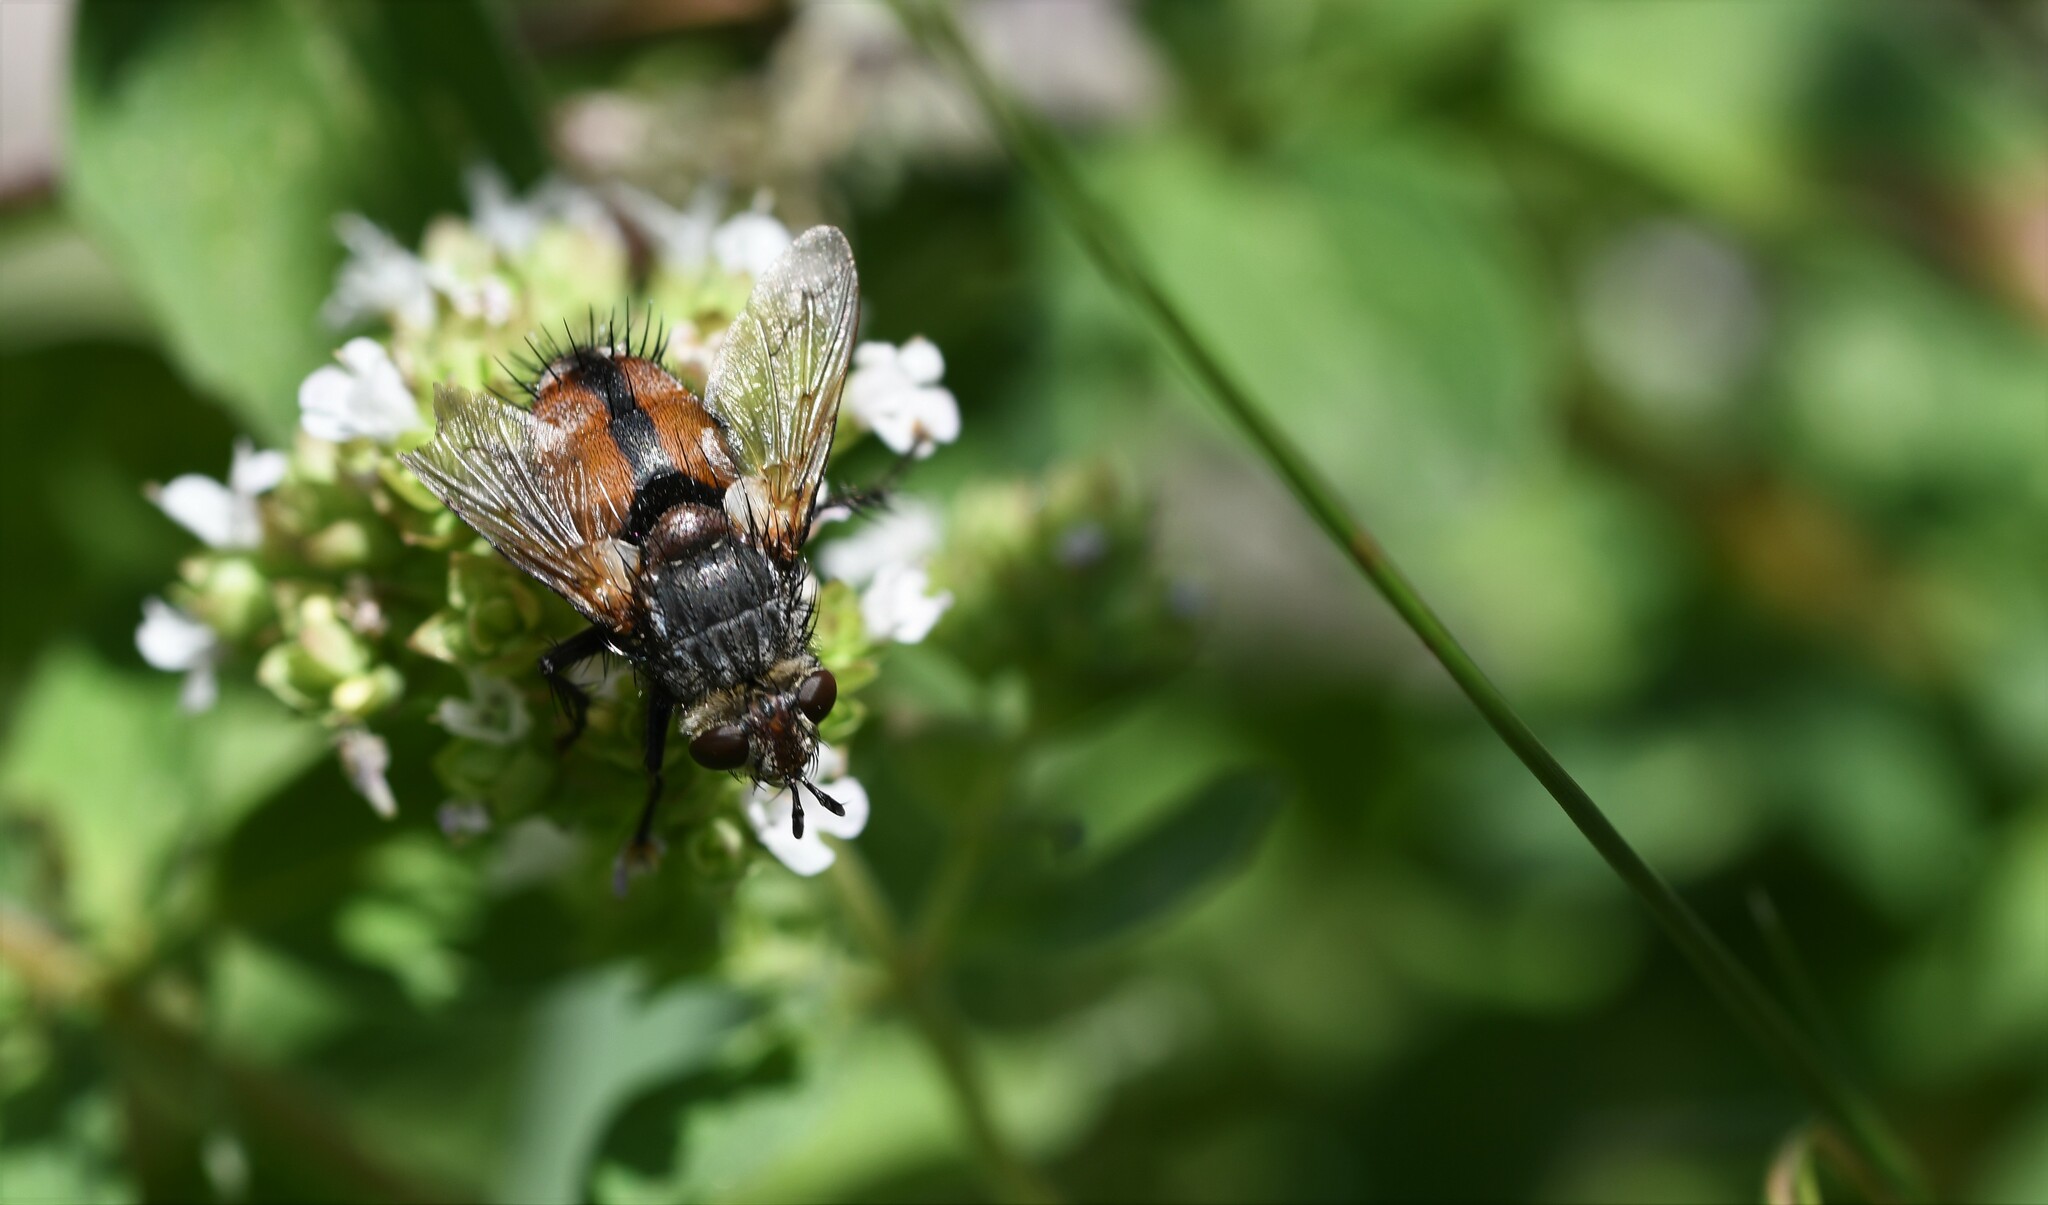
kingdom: Animalia
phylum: Arthropoda
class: Insecta
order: Diptera
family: Tachinidae
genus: Peleteria
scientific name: Peleteria rubescens
